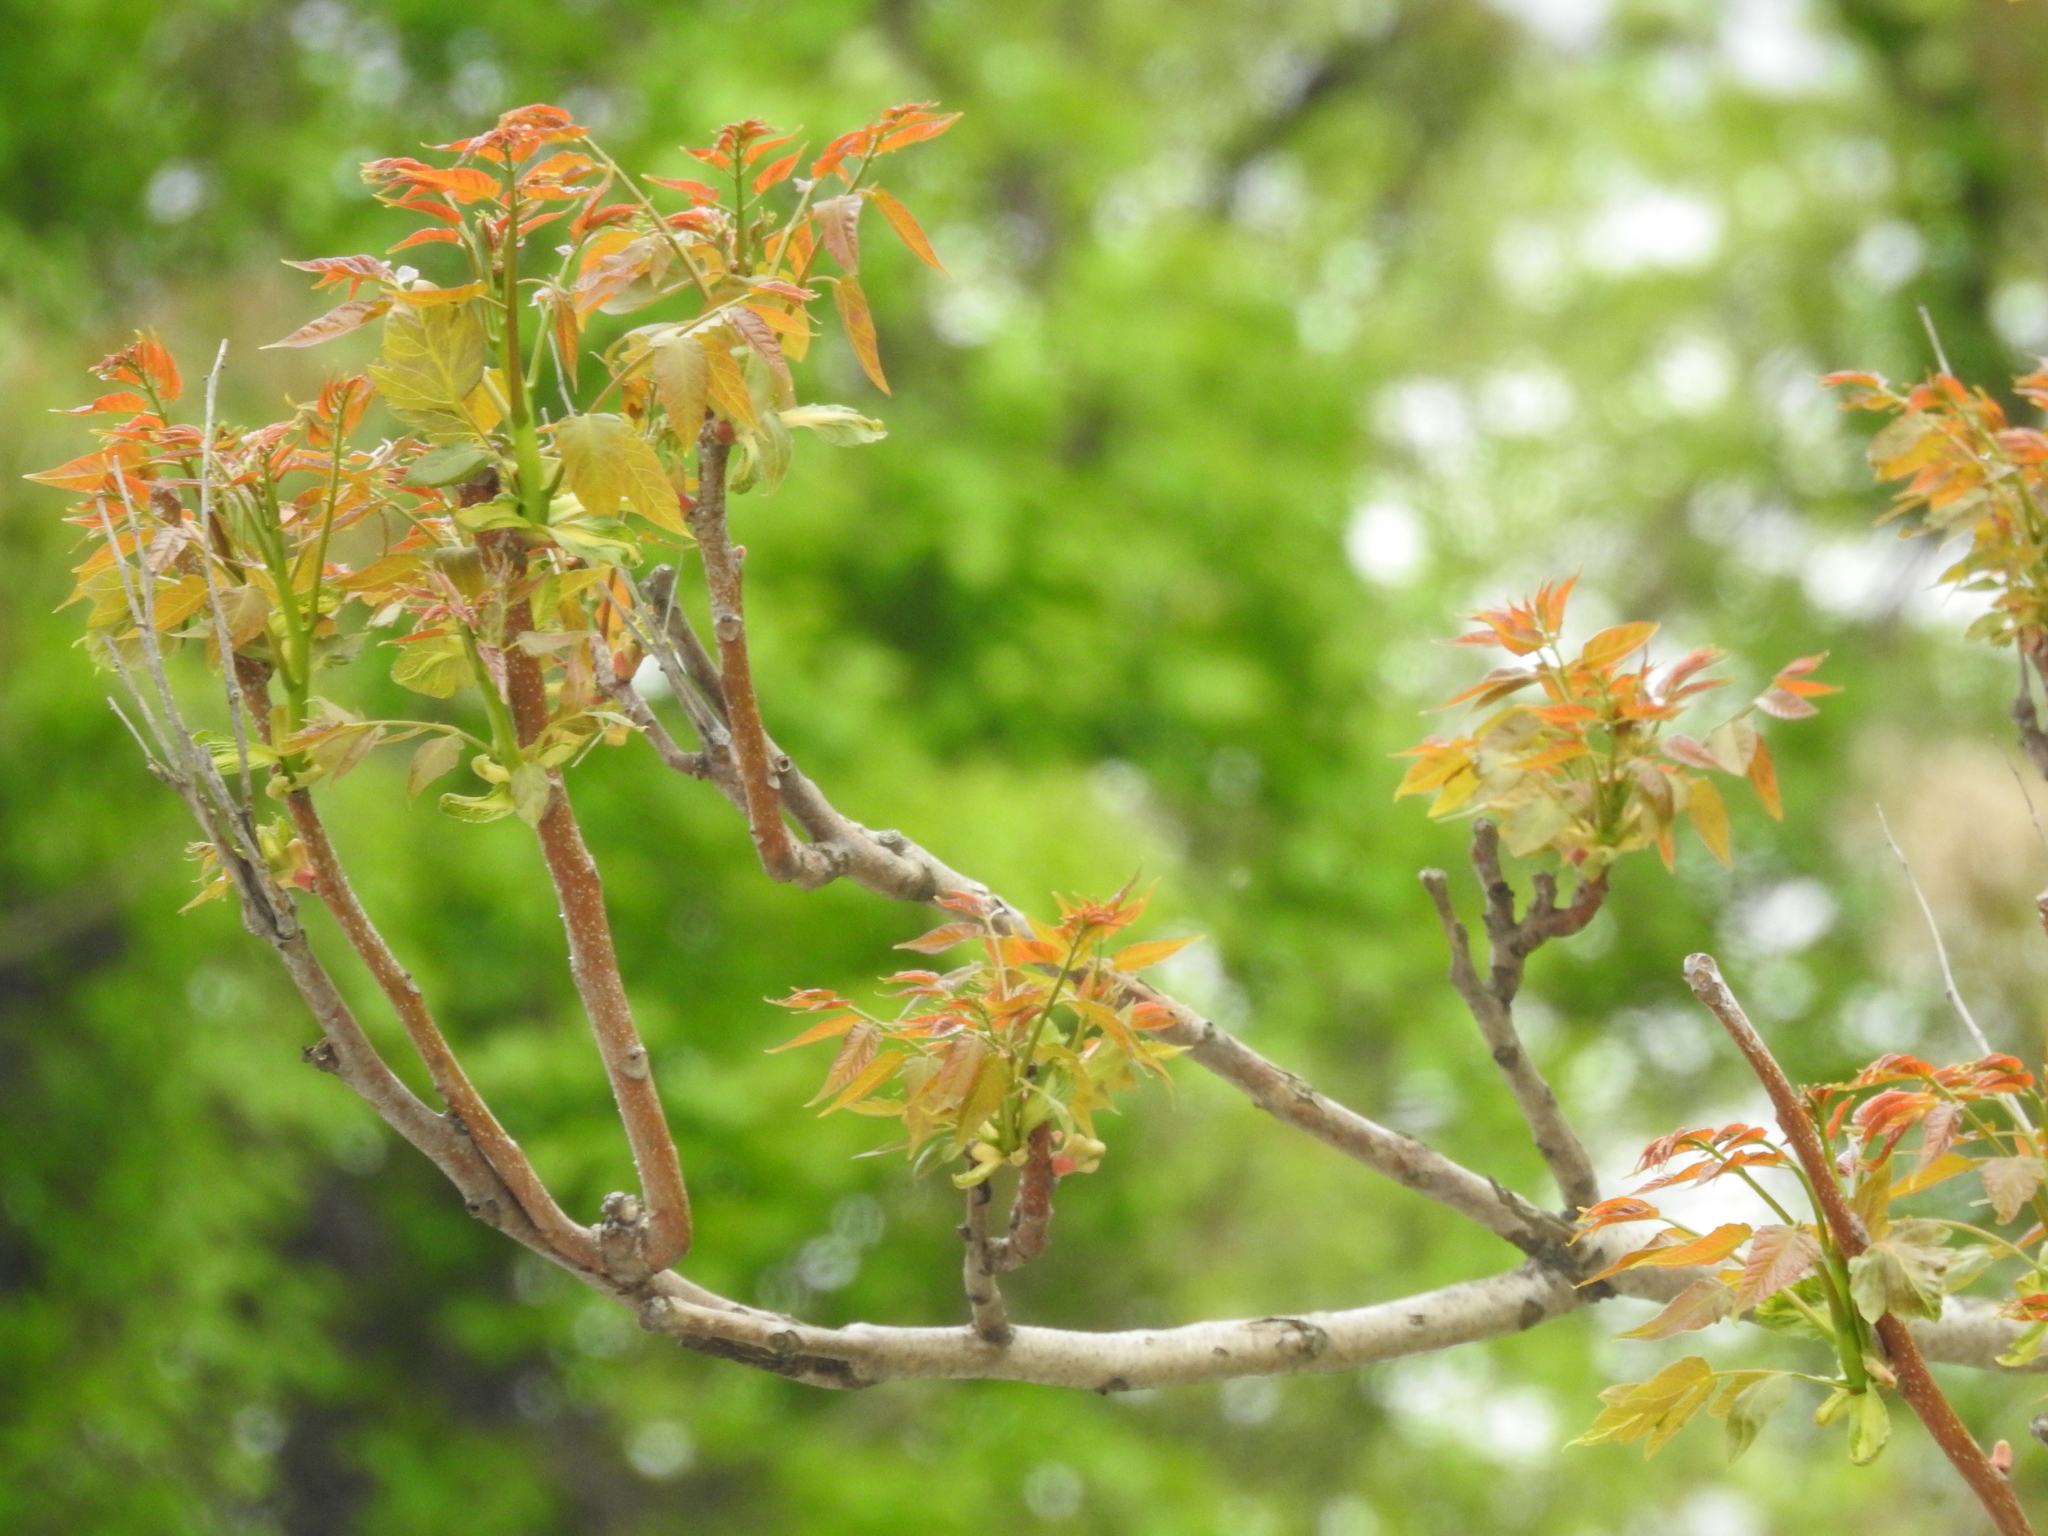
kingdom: Plantae
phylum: Tracheophyta
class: Magnoliopsida
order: Sapindales
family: Simaroubaceae
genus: Ailanthus
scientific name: Ailanthus altissima
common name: Tree-of-heaven
